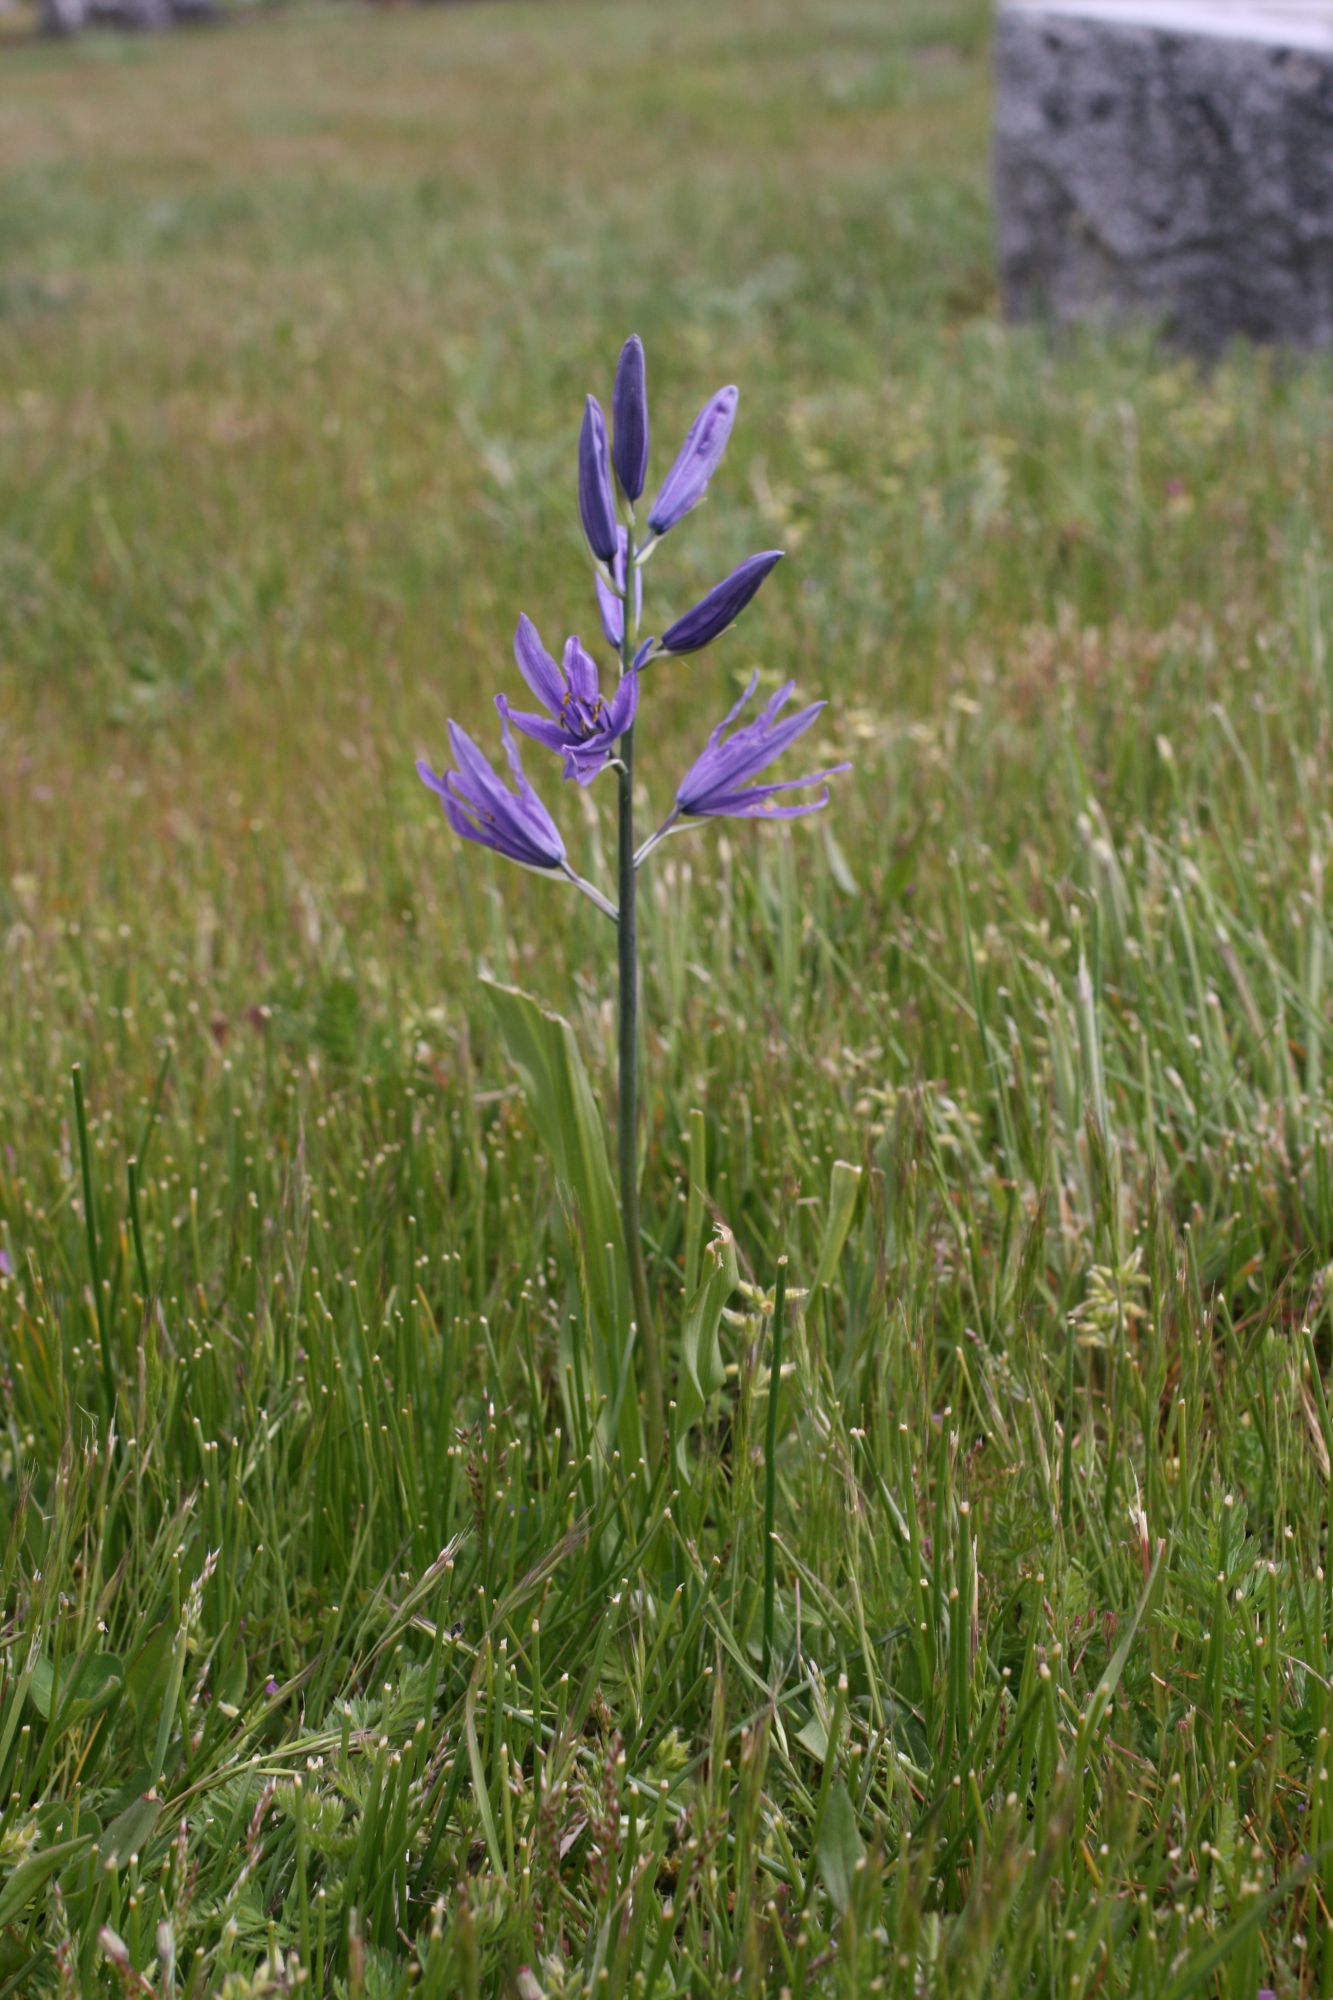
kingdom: Plantae
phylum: Tracheophyta
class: Liliopsida
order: Asparagales
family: Asparagaceae
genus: Camassia
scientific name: Camassia leichtlinii
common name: Leichtlin's camas
